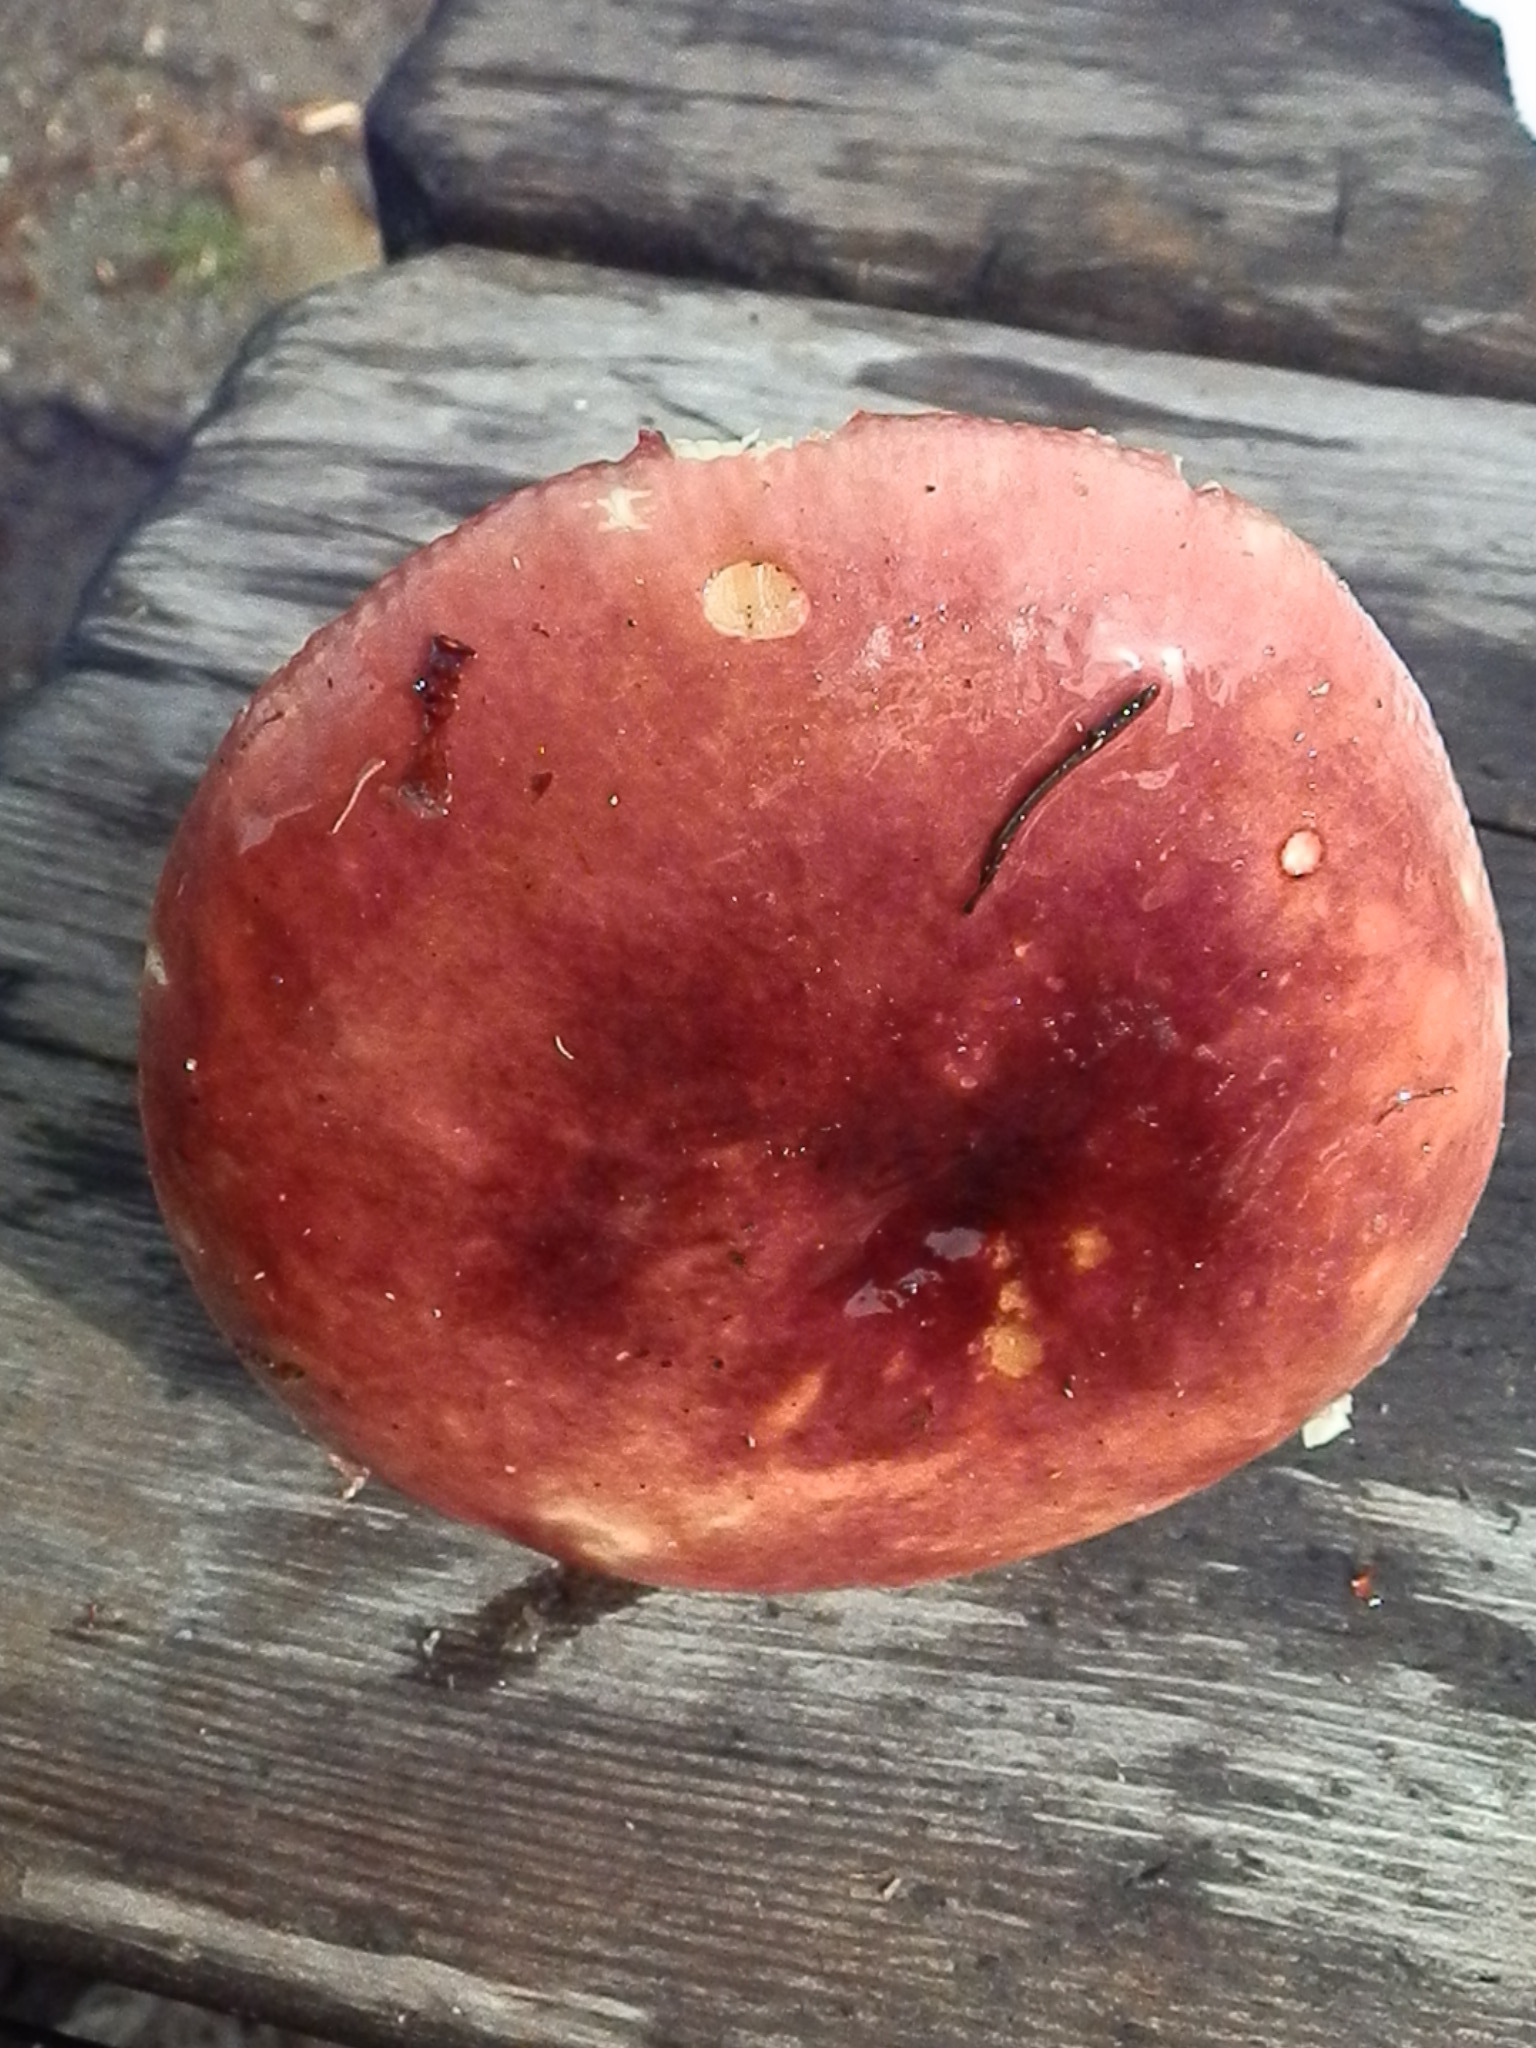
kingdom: Fungi
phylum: Basidiomycota
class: Agaricomycetes
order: Russulales
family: Russulaceae
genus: Russula
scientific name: Russula xerampelina
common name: Crab brittlegill
